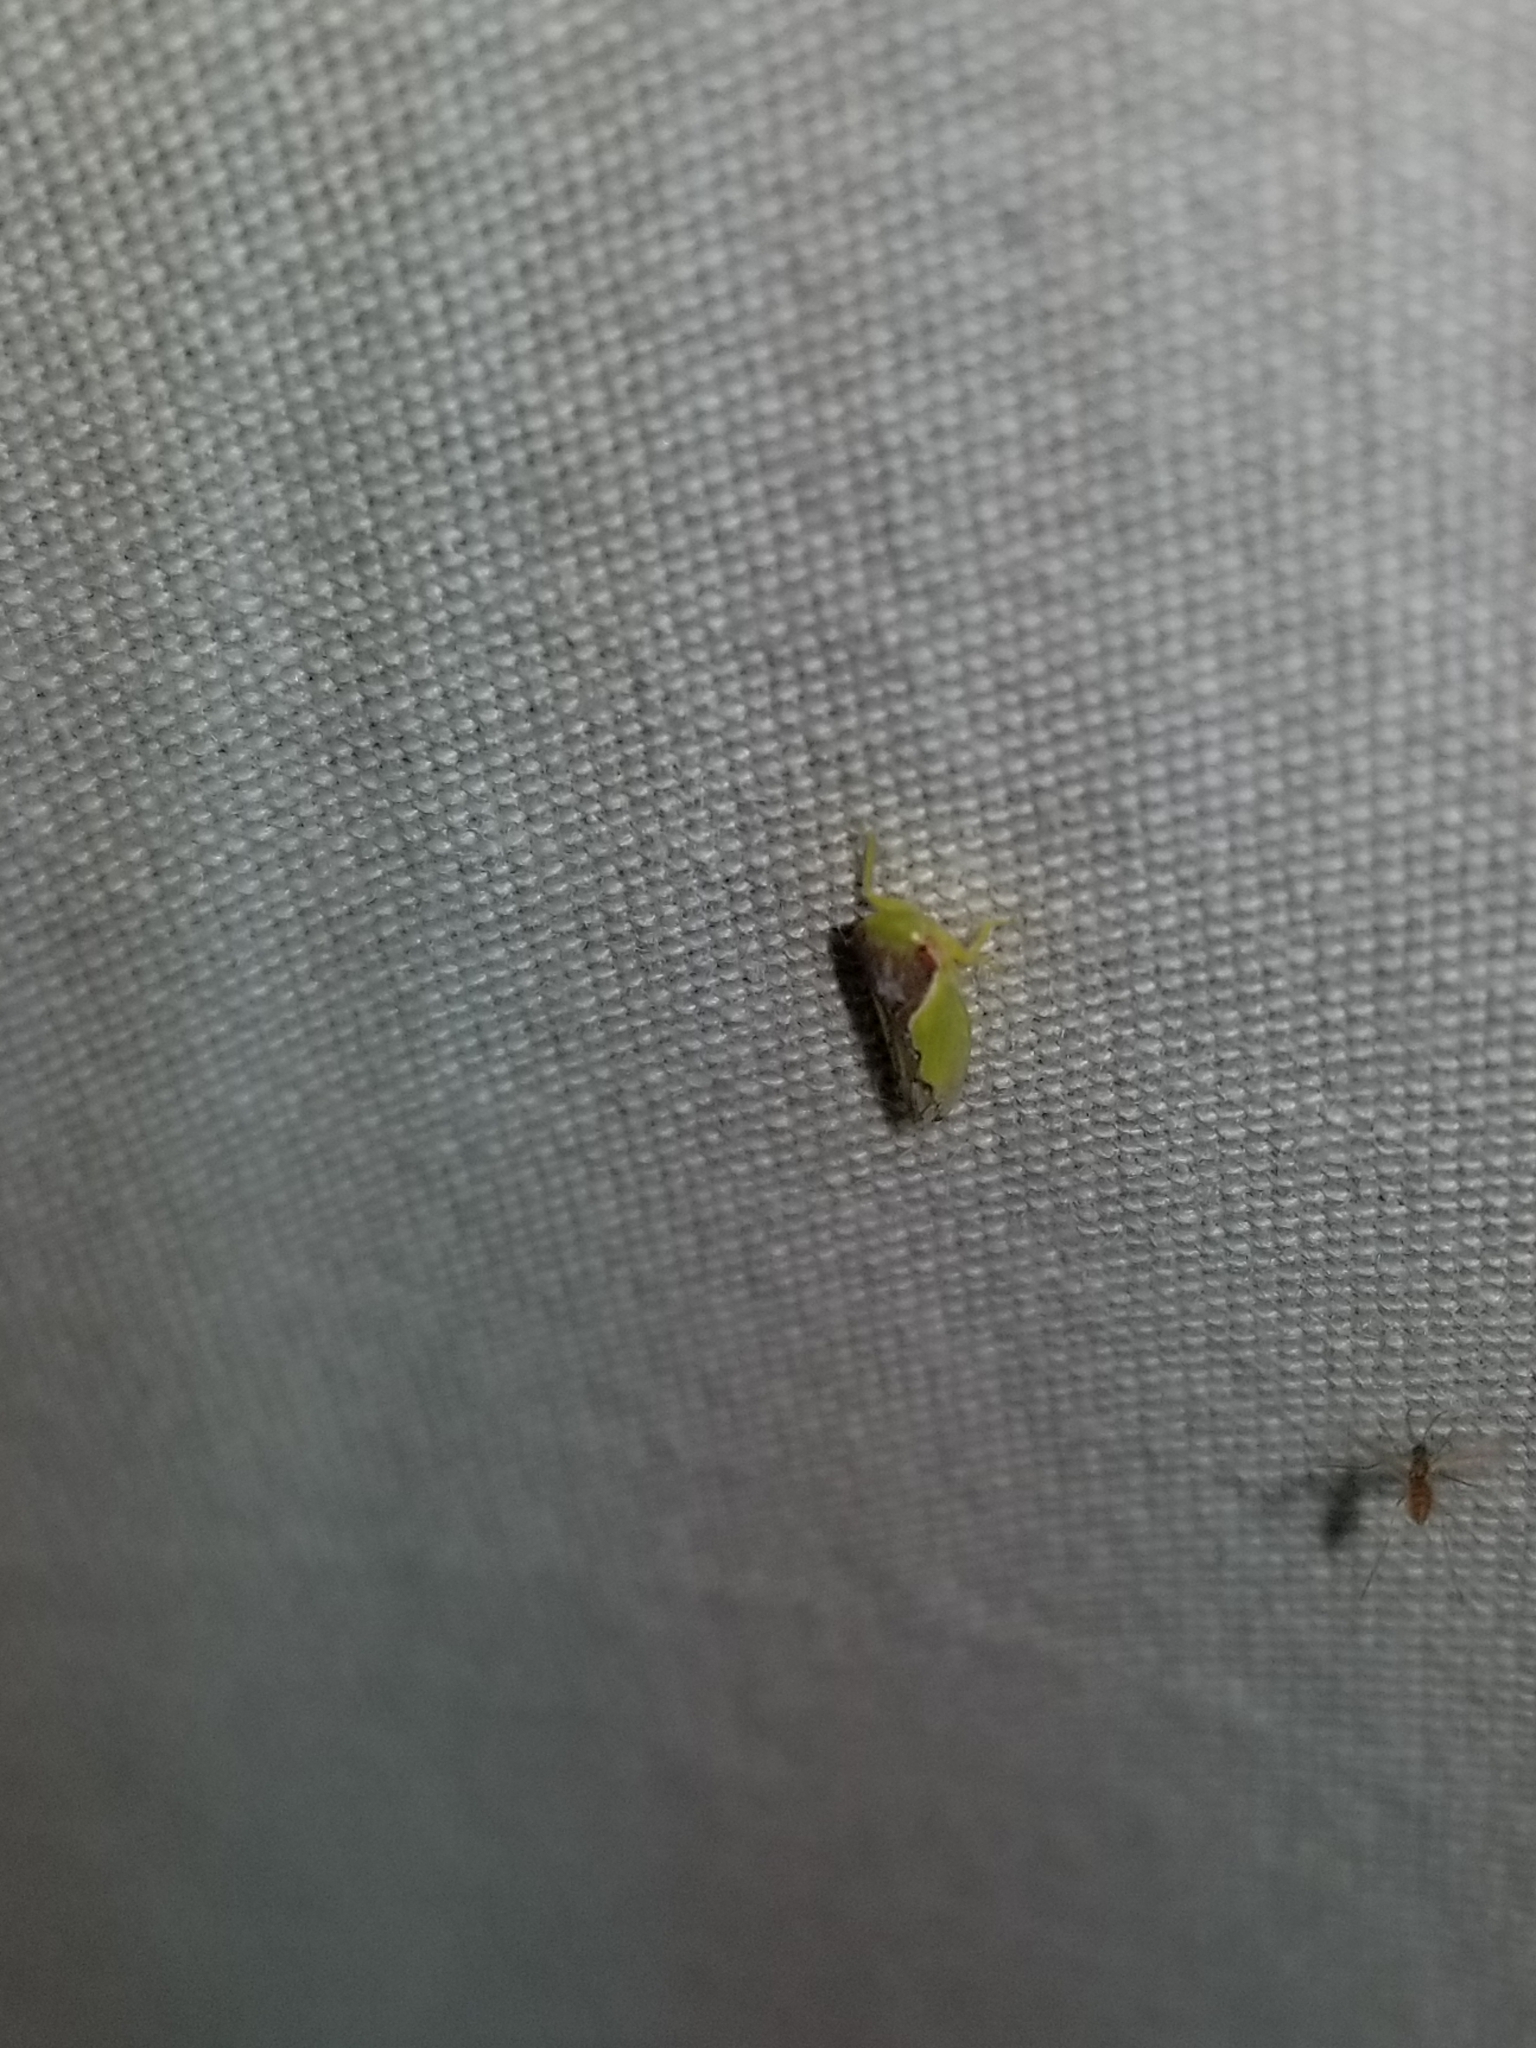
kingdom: Animalia
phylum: Arthropoda
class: Insecta
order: Hemiptera
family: Cicadellidae
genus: Omansobara ing
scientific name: Omansobara ing Omansobara palliolata
